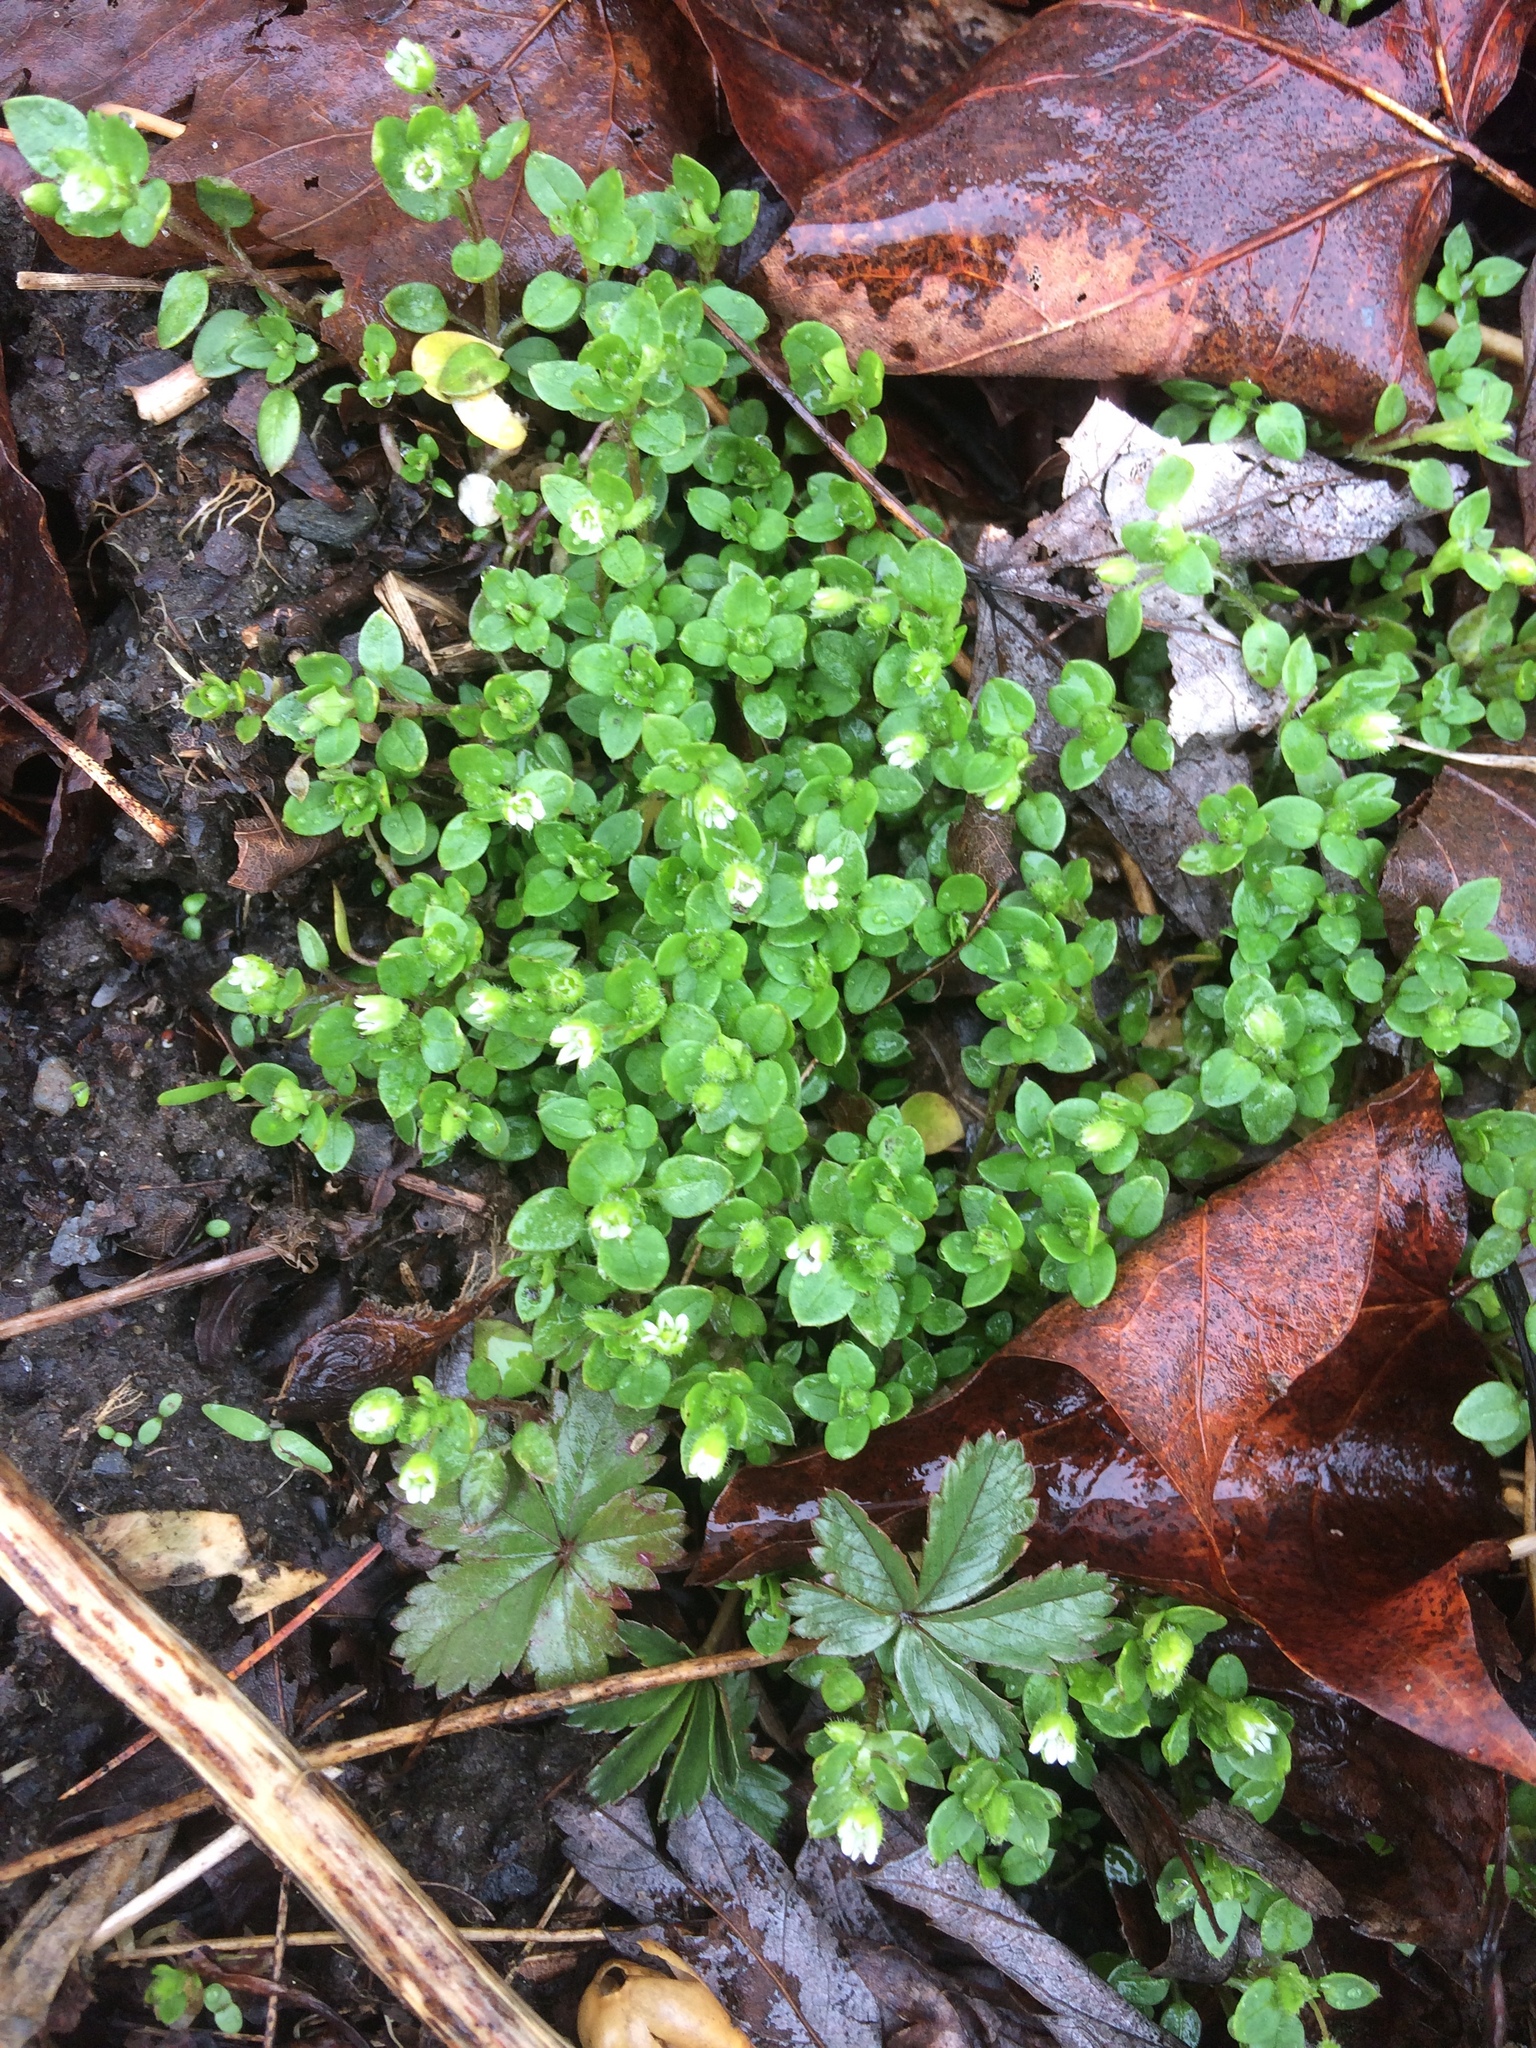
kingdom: Plantae
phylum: Tracheophyta
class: Magnoliopsida
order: Caryophyllales
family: Caryophyllaceae
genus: Stellaria
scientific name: Stellaria media
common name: Common chickweed
